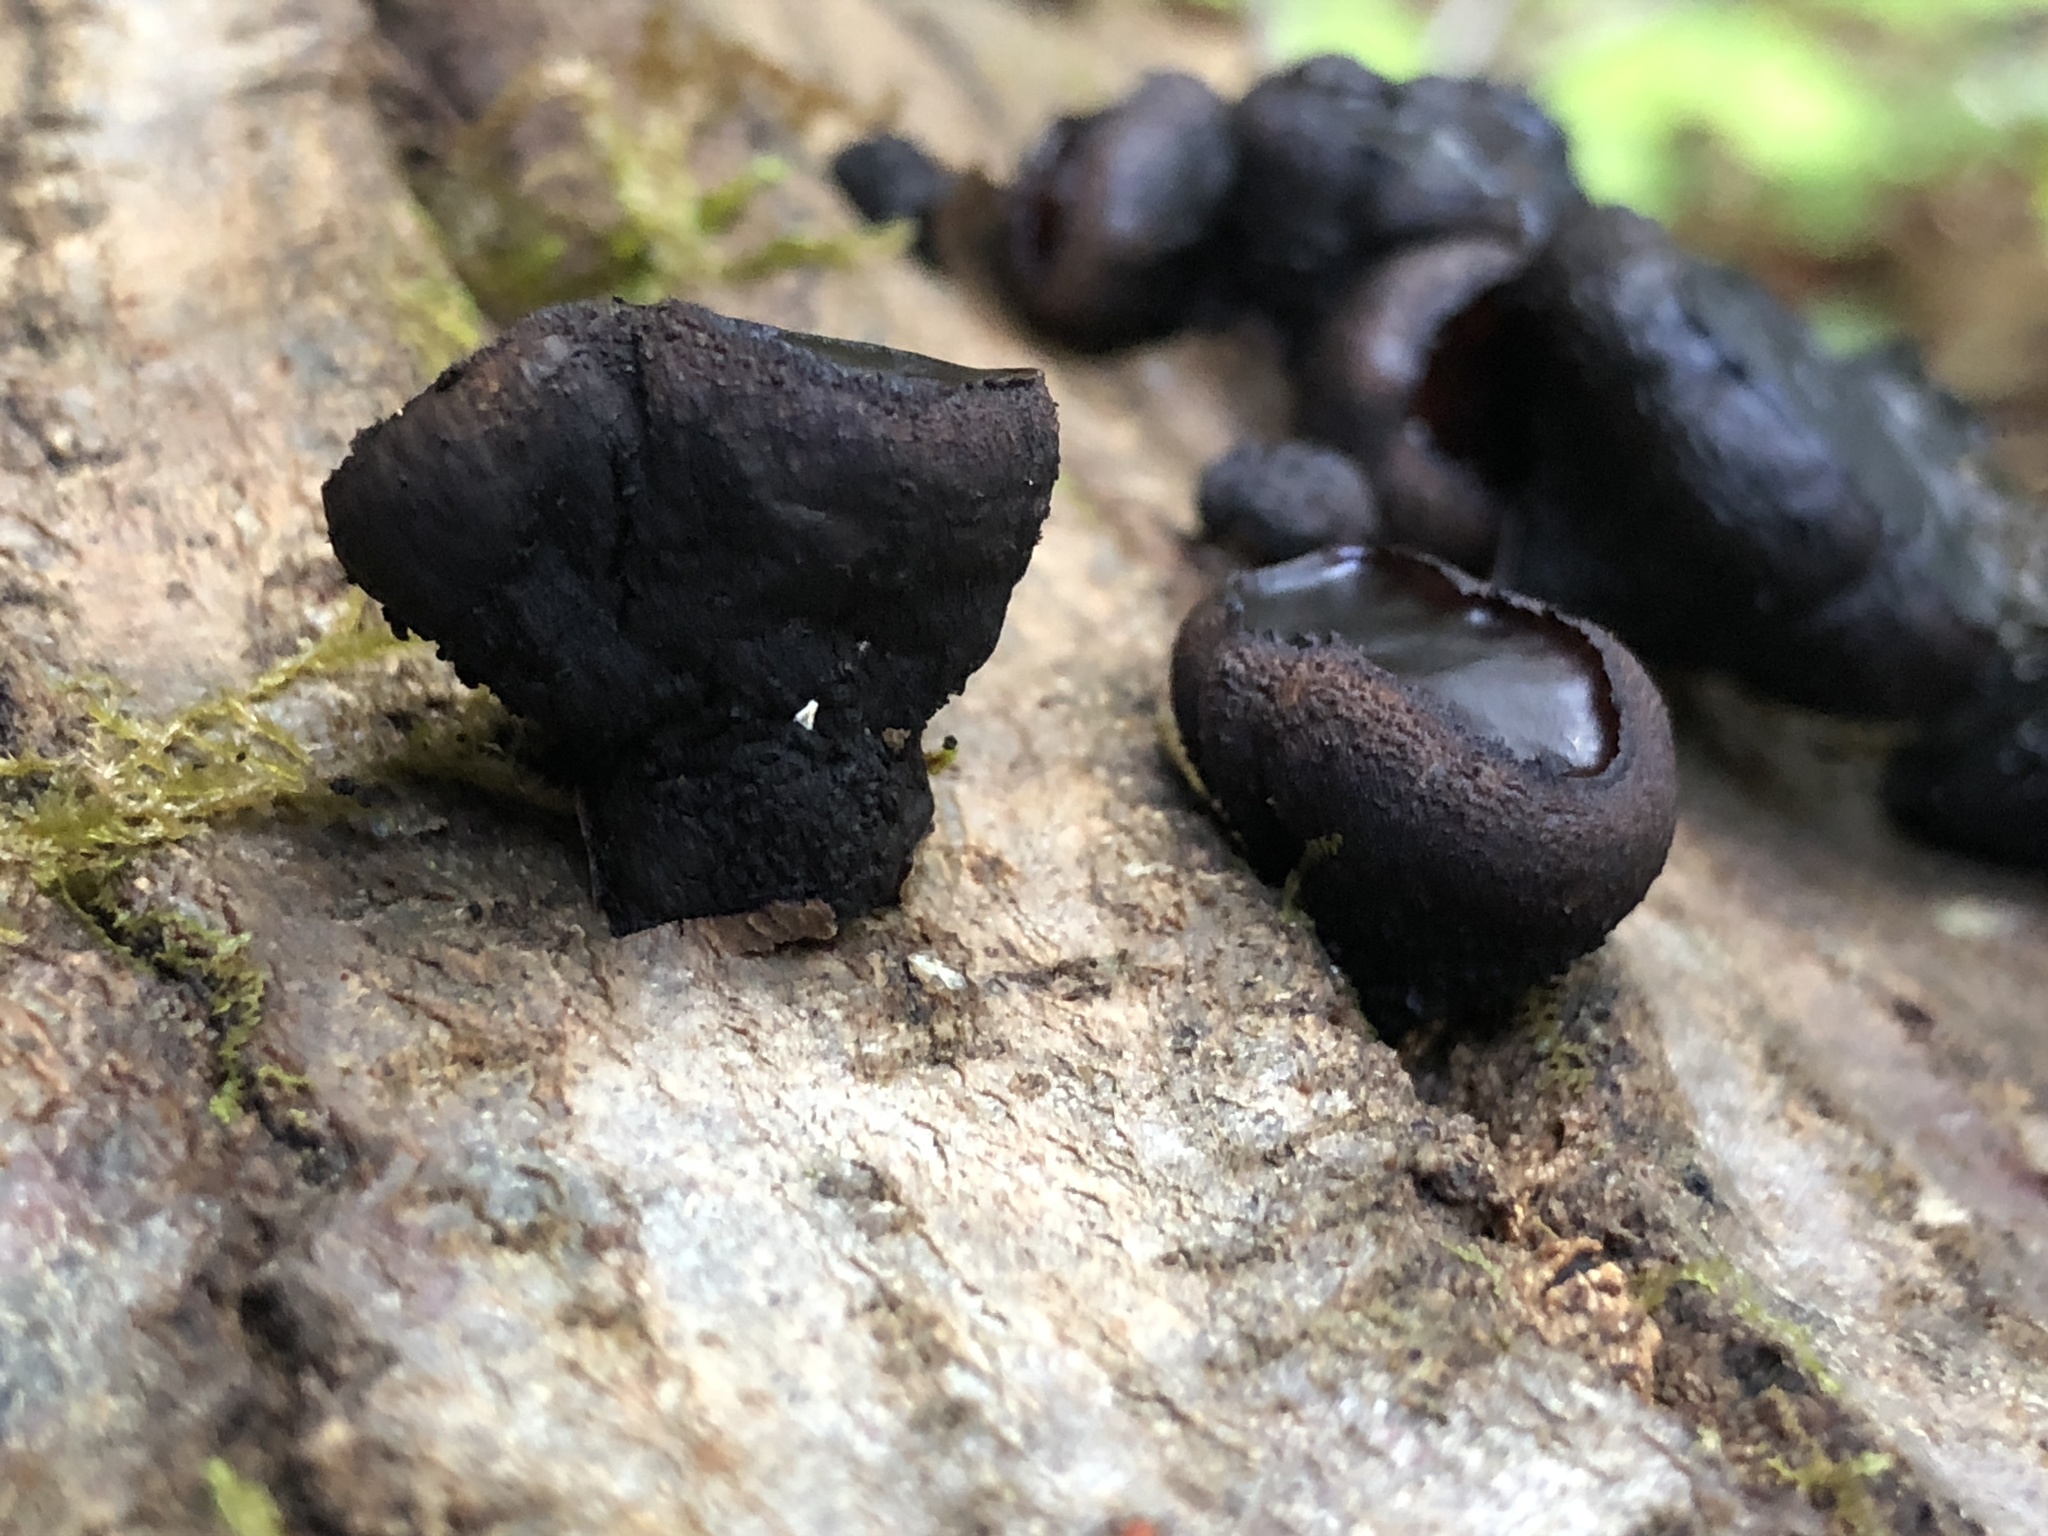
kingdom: Fungi
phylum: Ascomycota
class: Leotiomycetes
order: Phacidiales
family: Phacidiaceae
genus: Bulgaria
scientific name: Bulgaria inquinans
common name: Black bulgar
